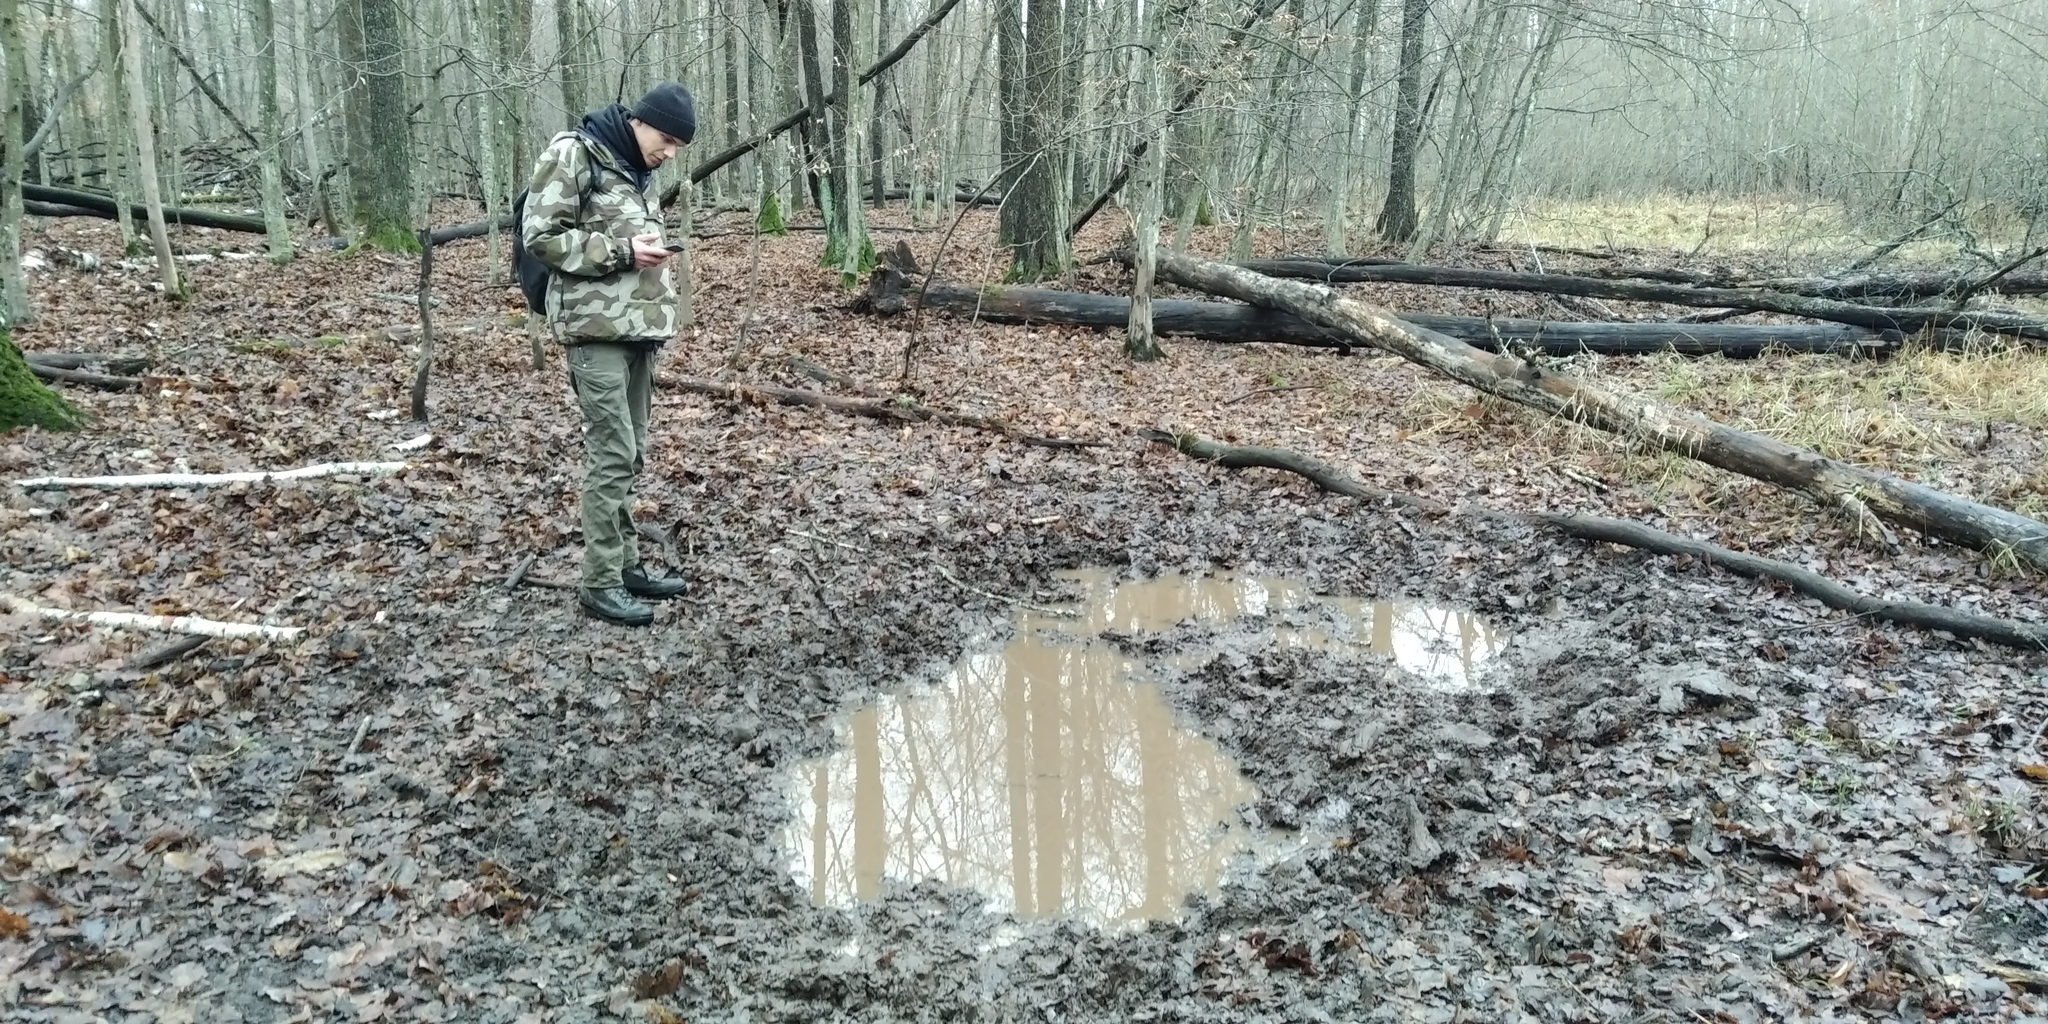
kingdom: Animalia
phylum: Chordata
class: Mammalia
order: Artiodactyla
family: Suidae
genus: Sus
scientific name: Sus scrofa
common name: Wild boar
